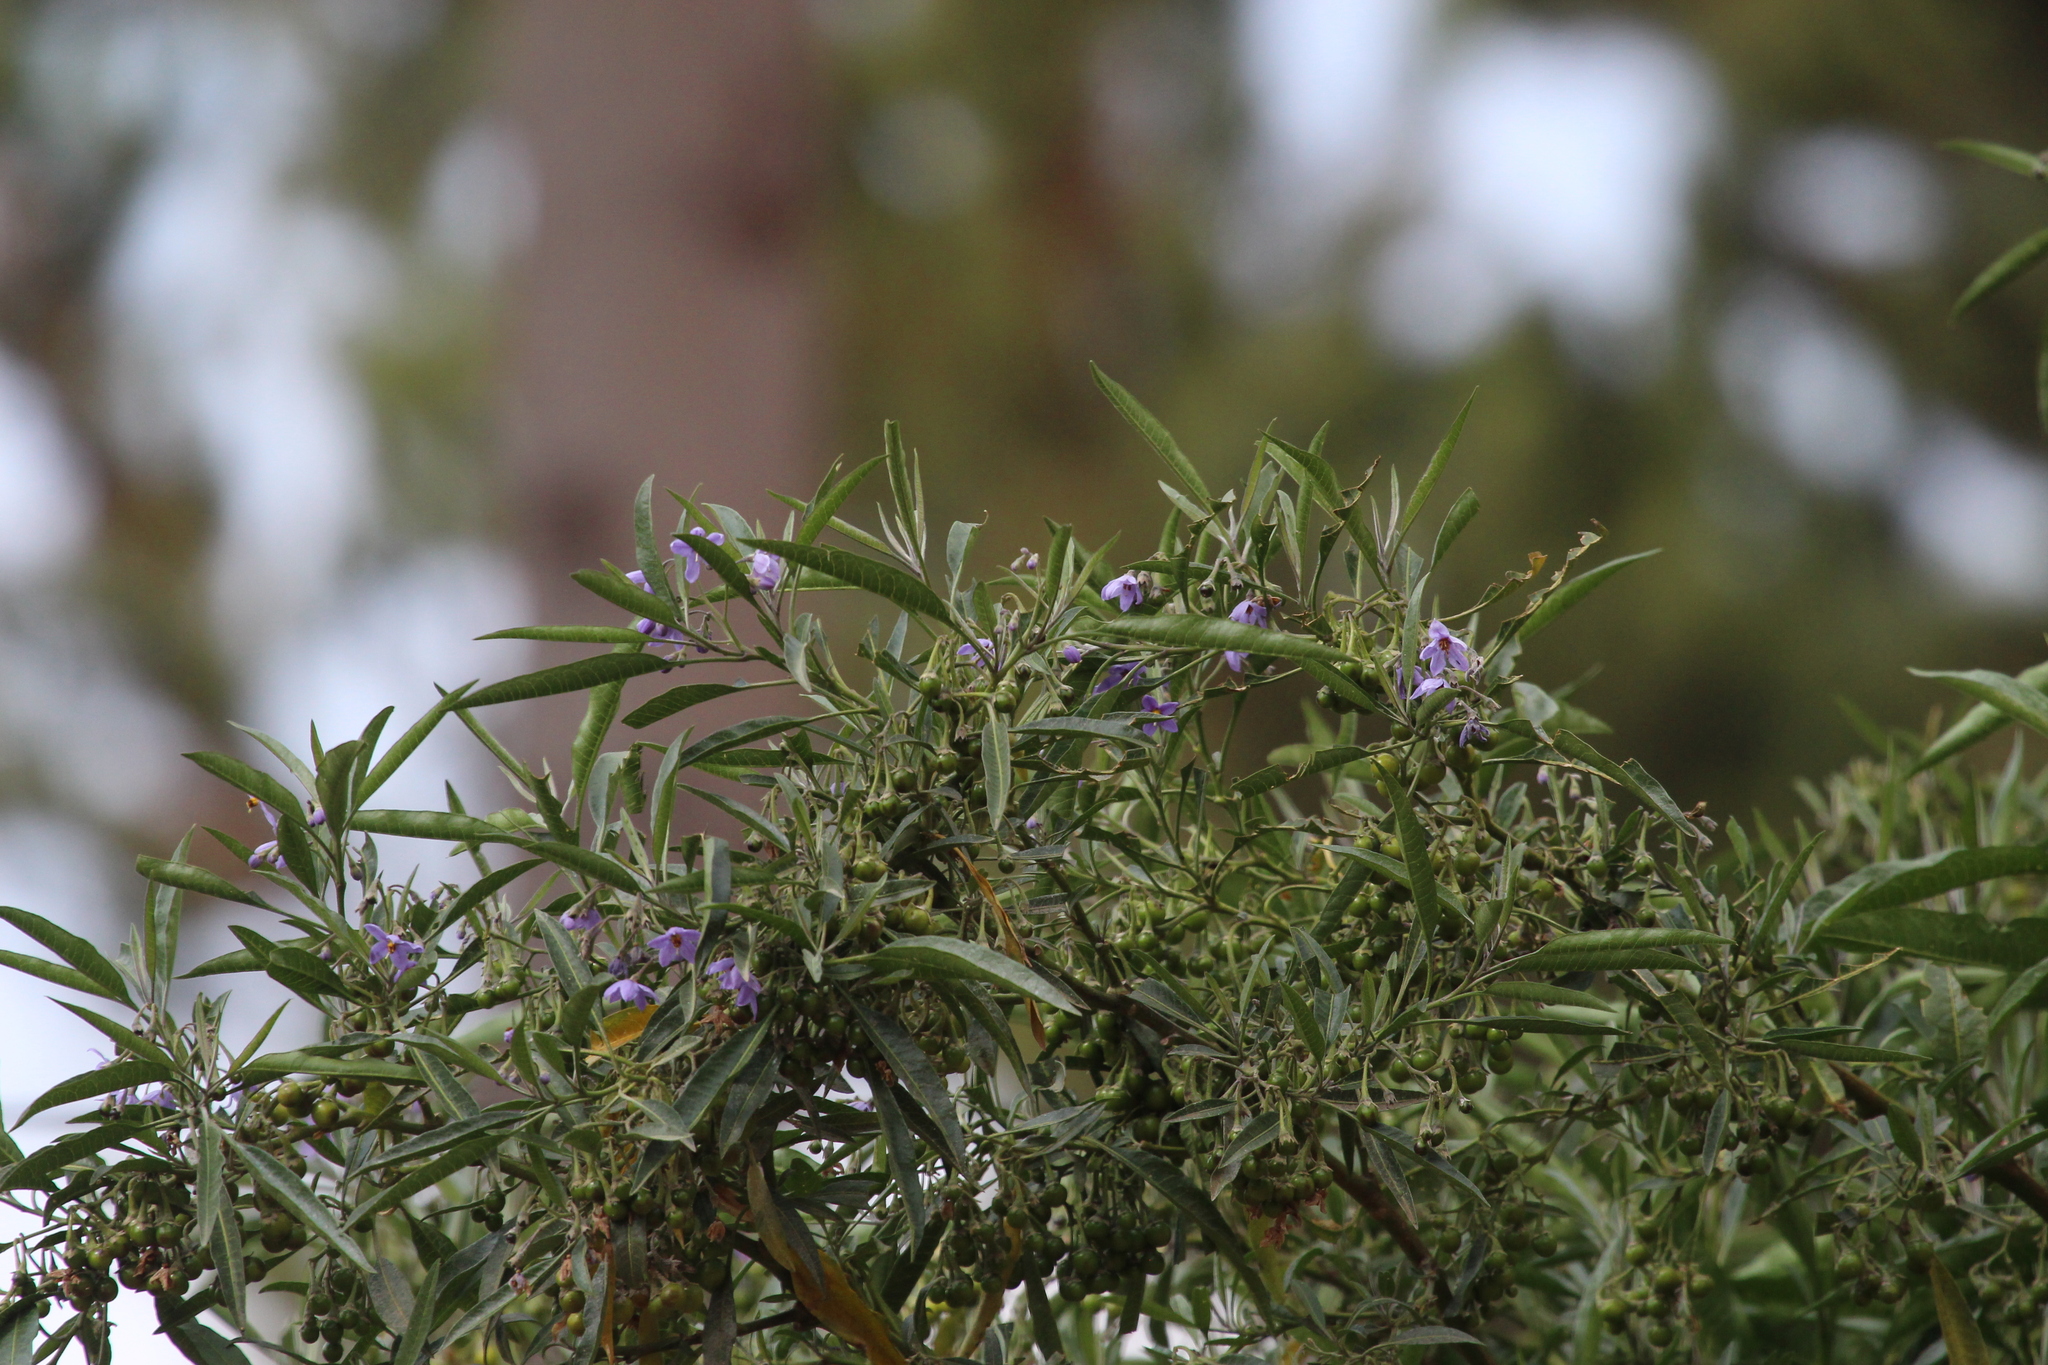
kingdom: Plantae
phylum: Tracheophyta
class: Magnoliopsida
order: Solanales
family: Solanaceae
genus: Solanum
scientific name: Solanum nitidum
